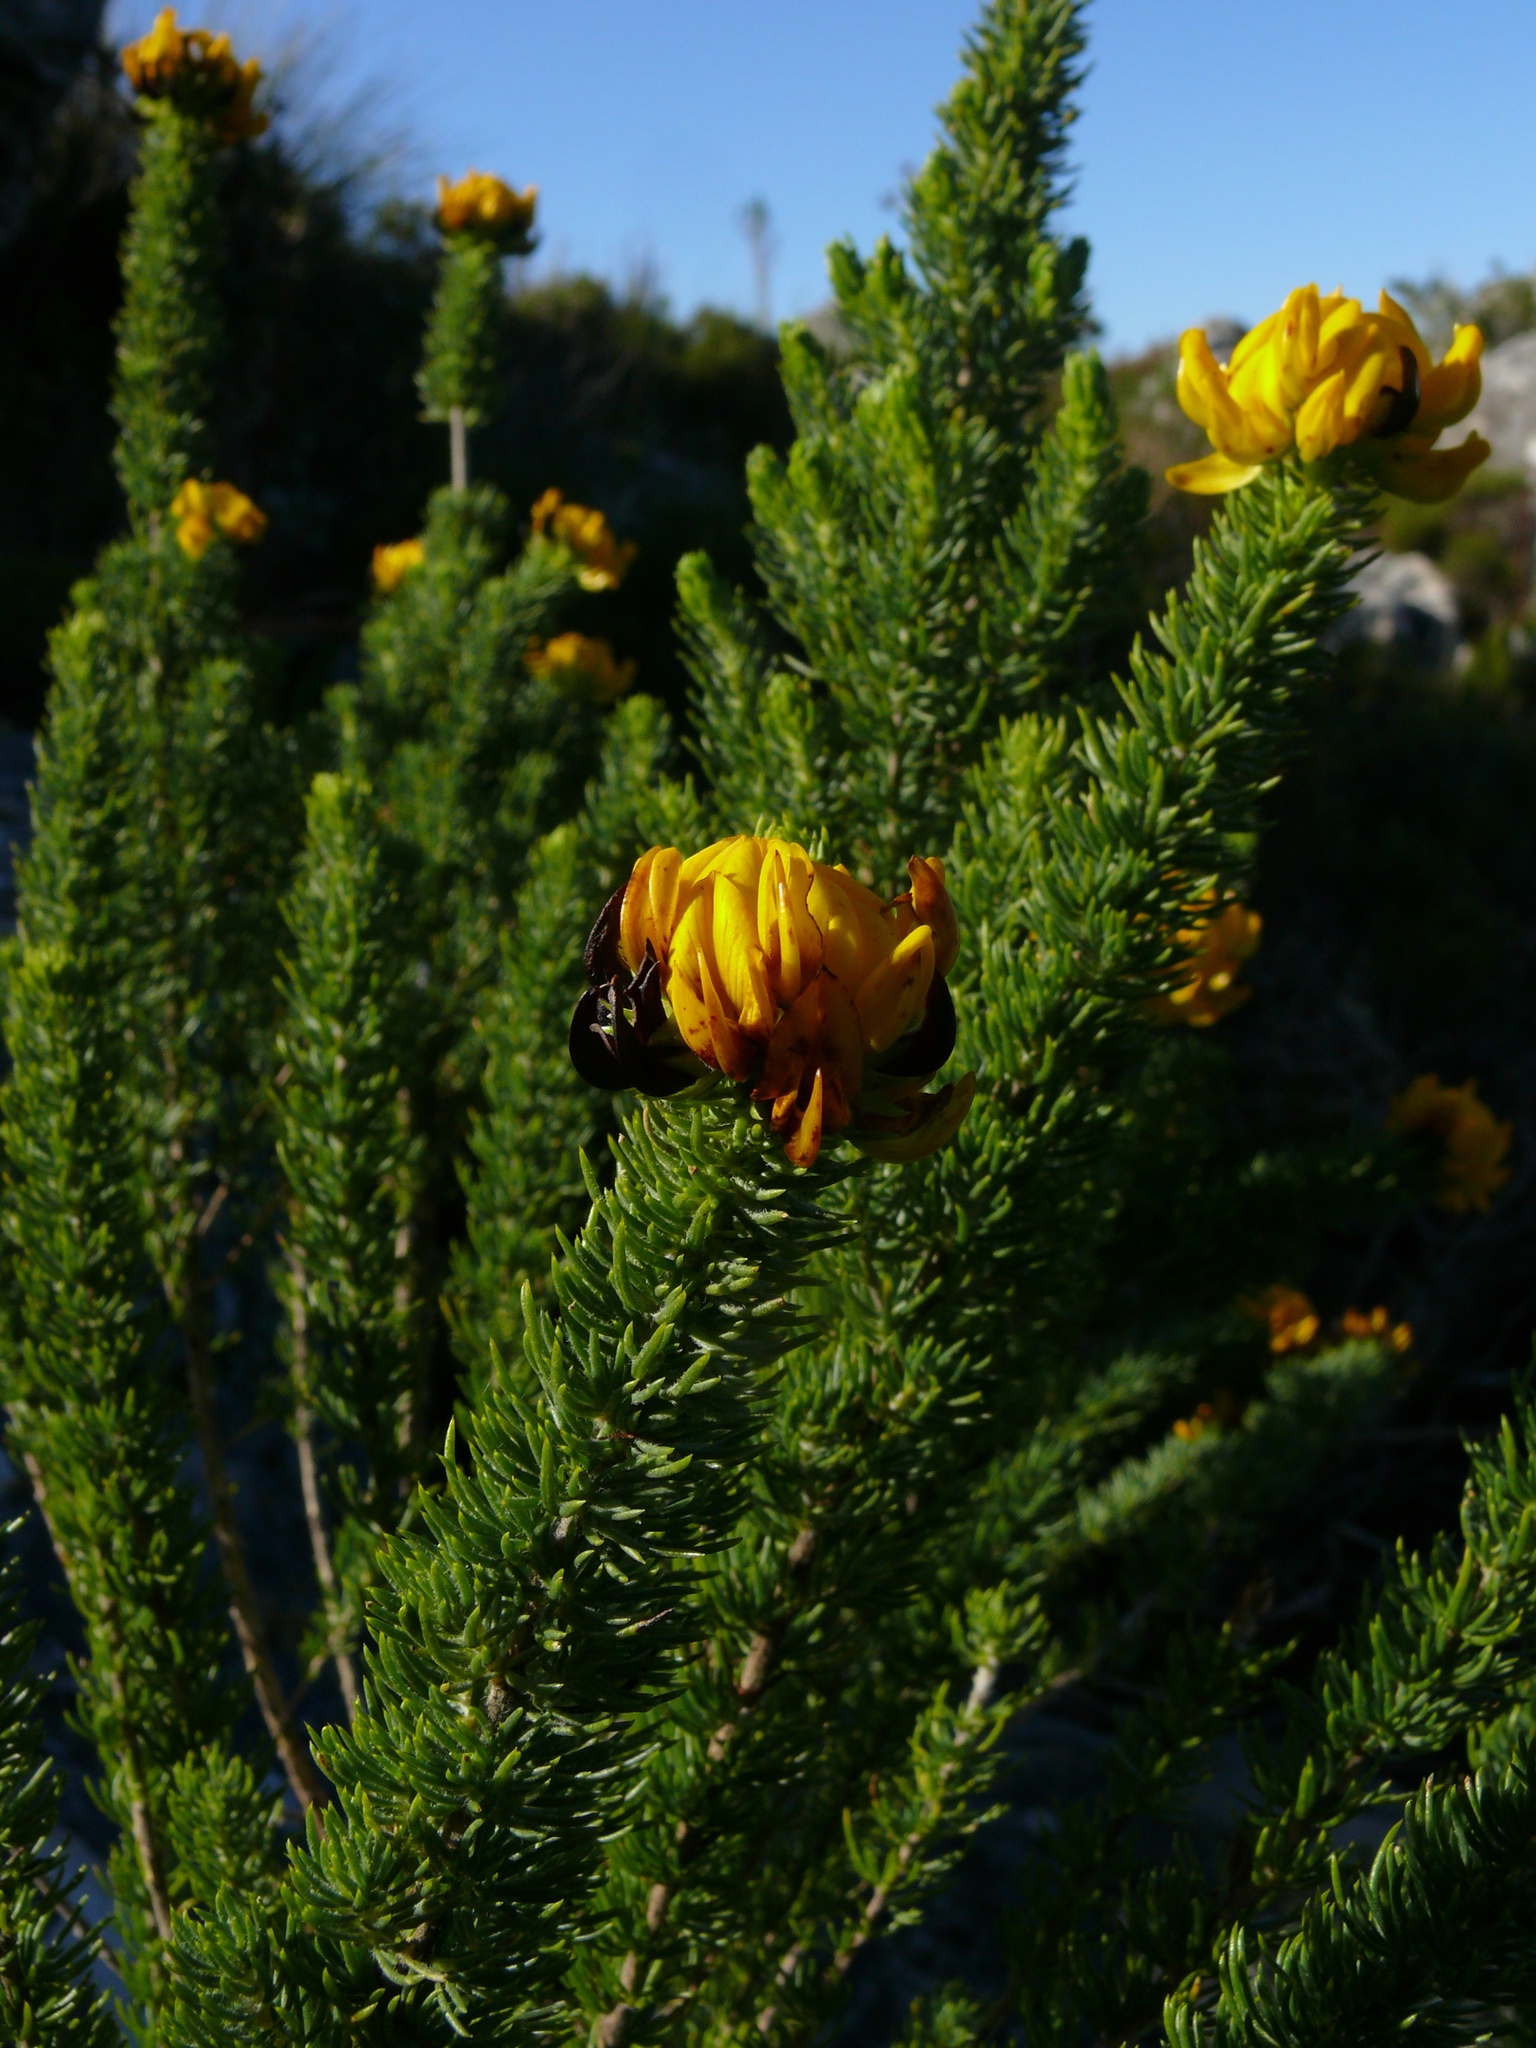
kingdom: Plantae
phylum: Tracheophyta
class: Magnoliopsida
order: Fabales
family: Fabaceae
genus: Aspalathus
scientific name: Aspalathus capitata
